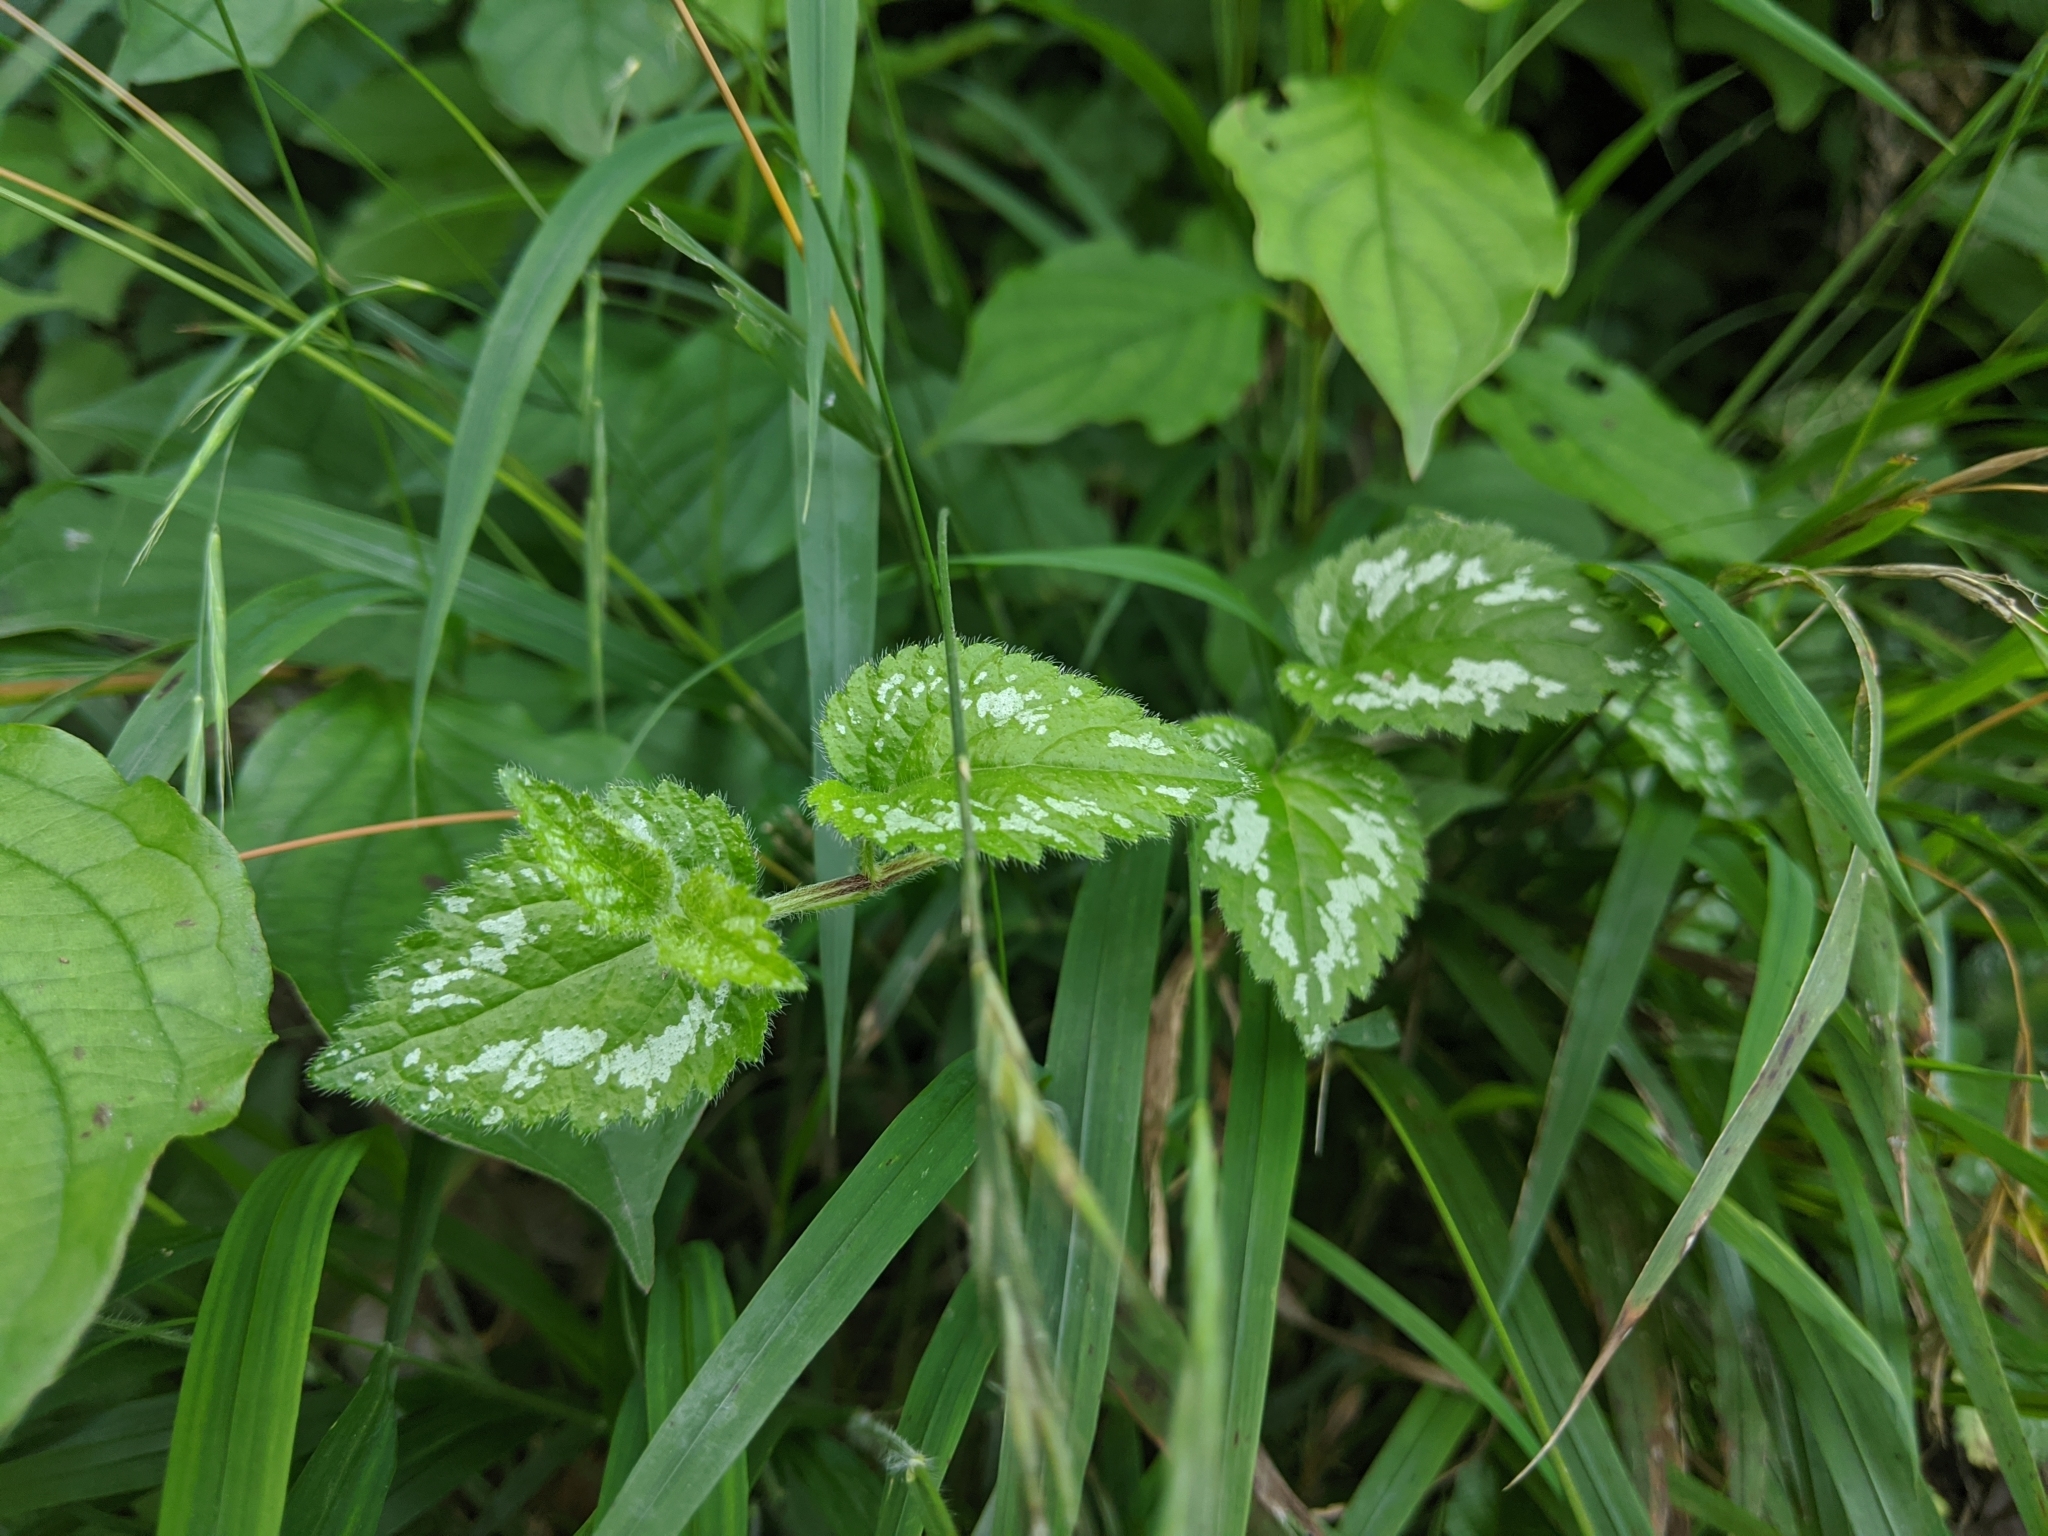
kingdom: Plantae
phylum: Tracheophyta
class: Magnoliopsida
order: Lamiales
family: Lamiaceae
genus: Lamium
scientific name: Lamium galeobdolon
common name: Yellow archangel
